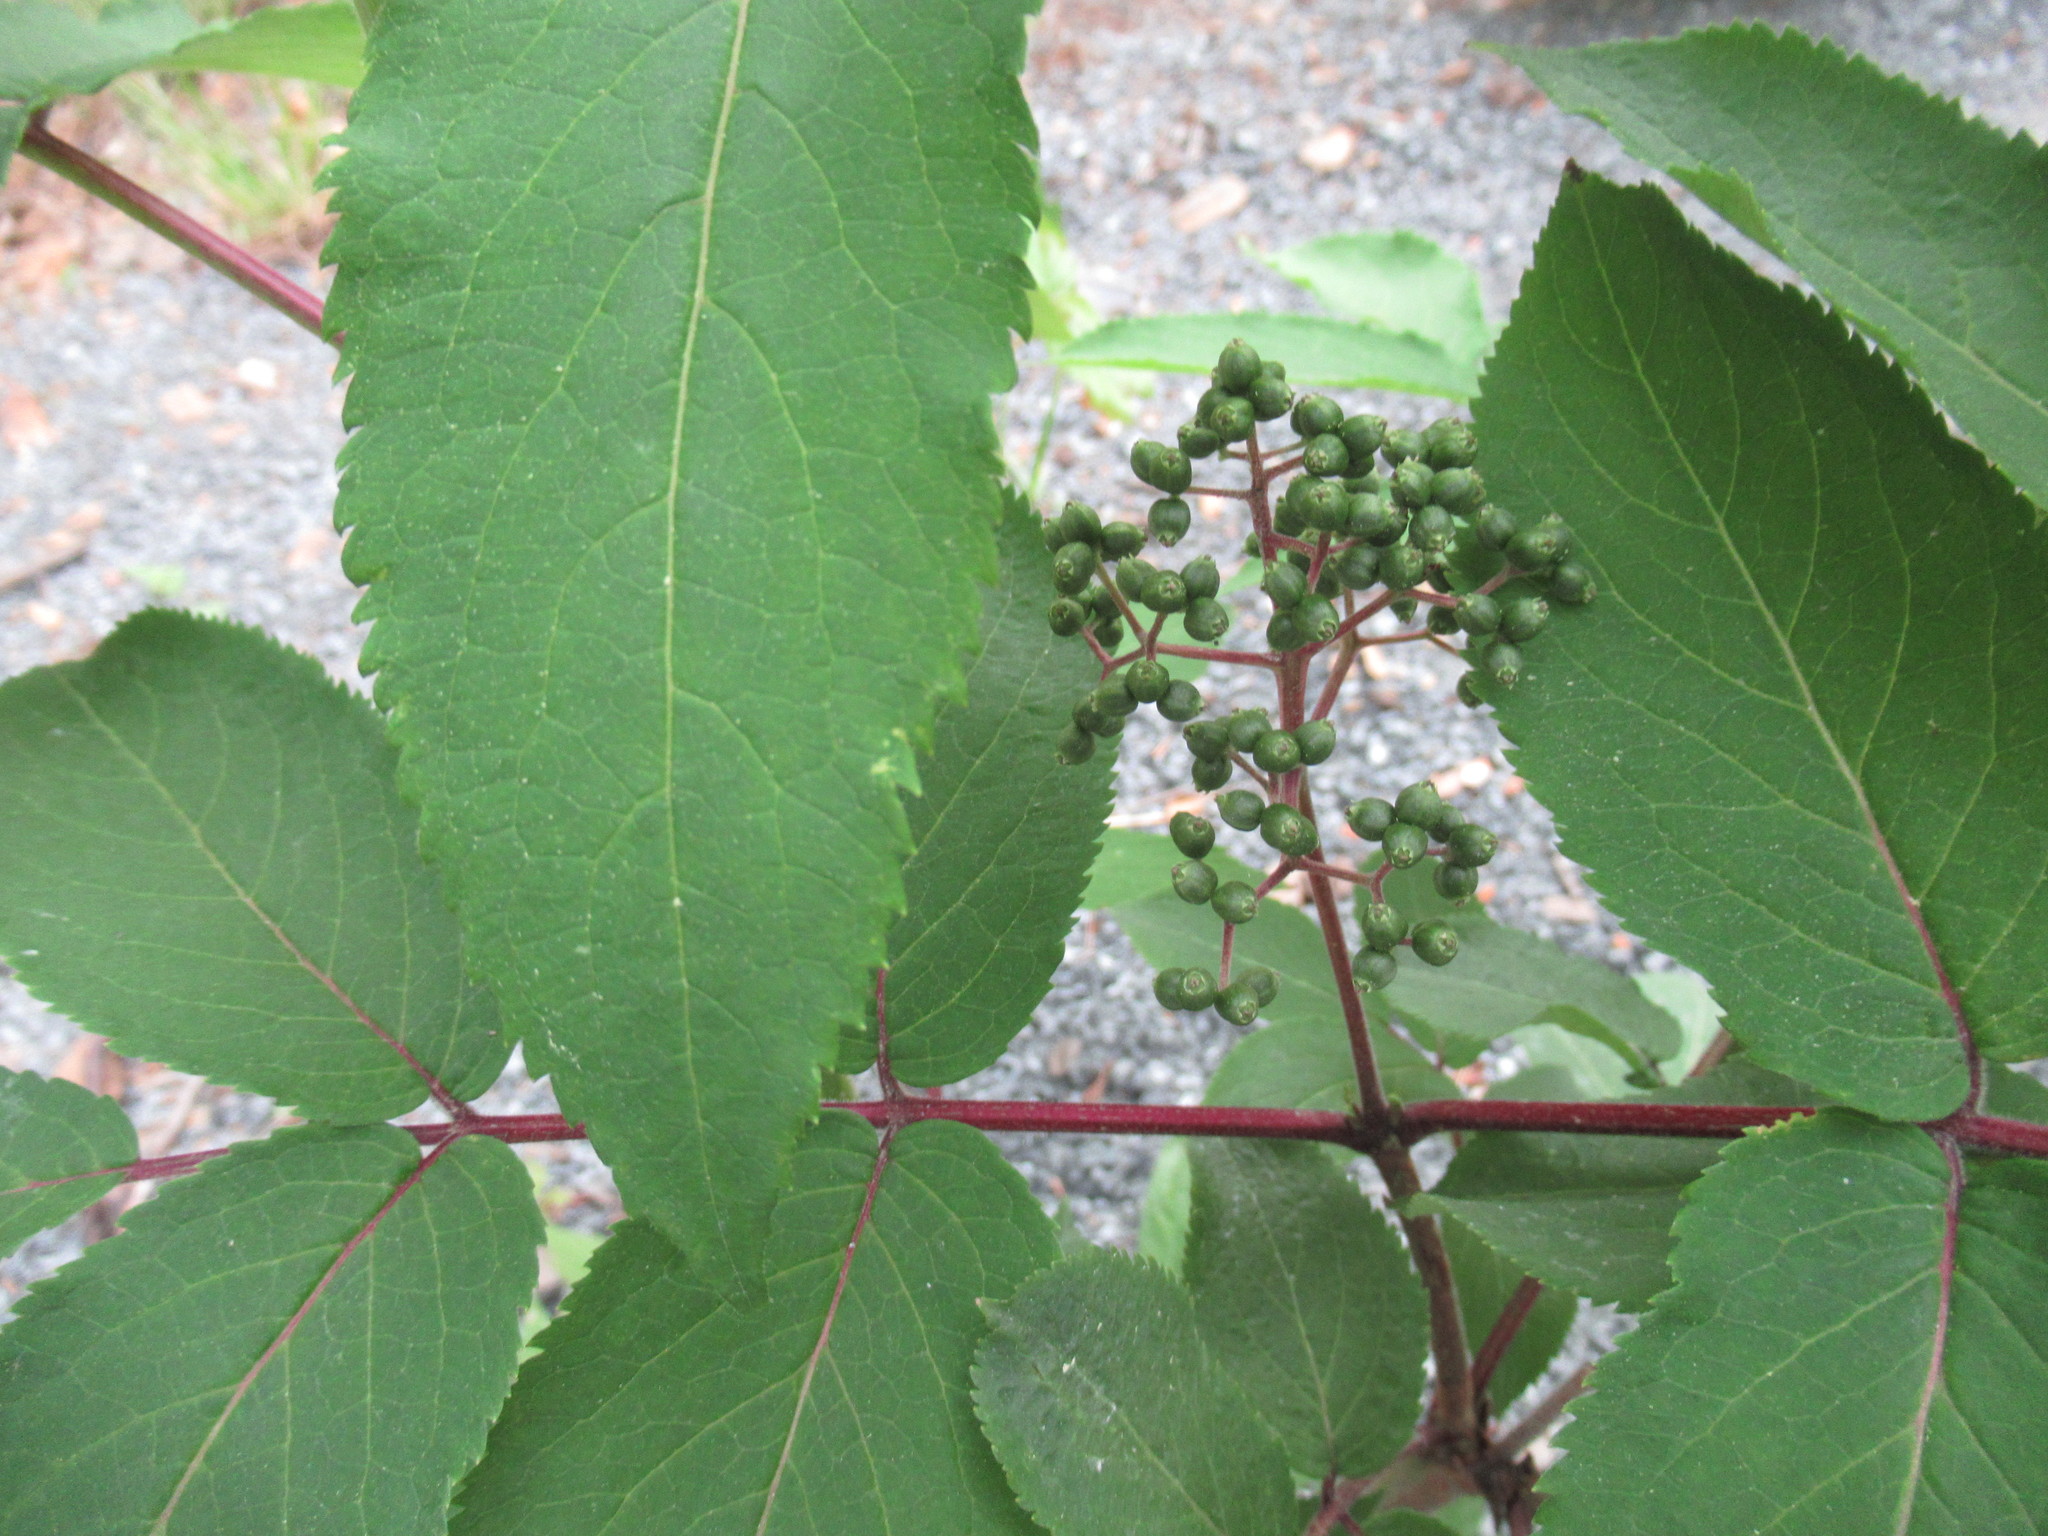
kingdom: Plantae
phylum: Tracheophyta
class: Magnoliopsida
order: Dipsacales
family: Viburnaceae
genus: Sambucus
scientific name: Sambucus racemosa
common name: Red-berried elder
